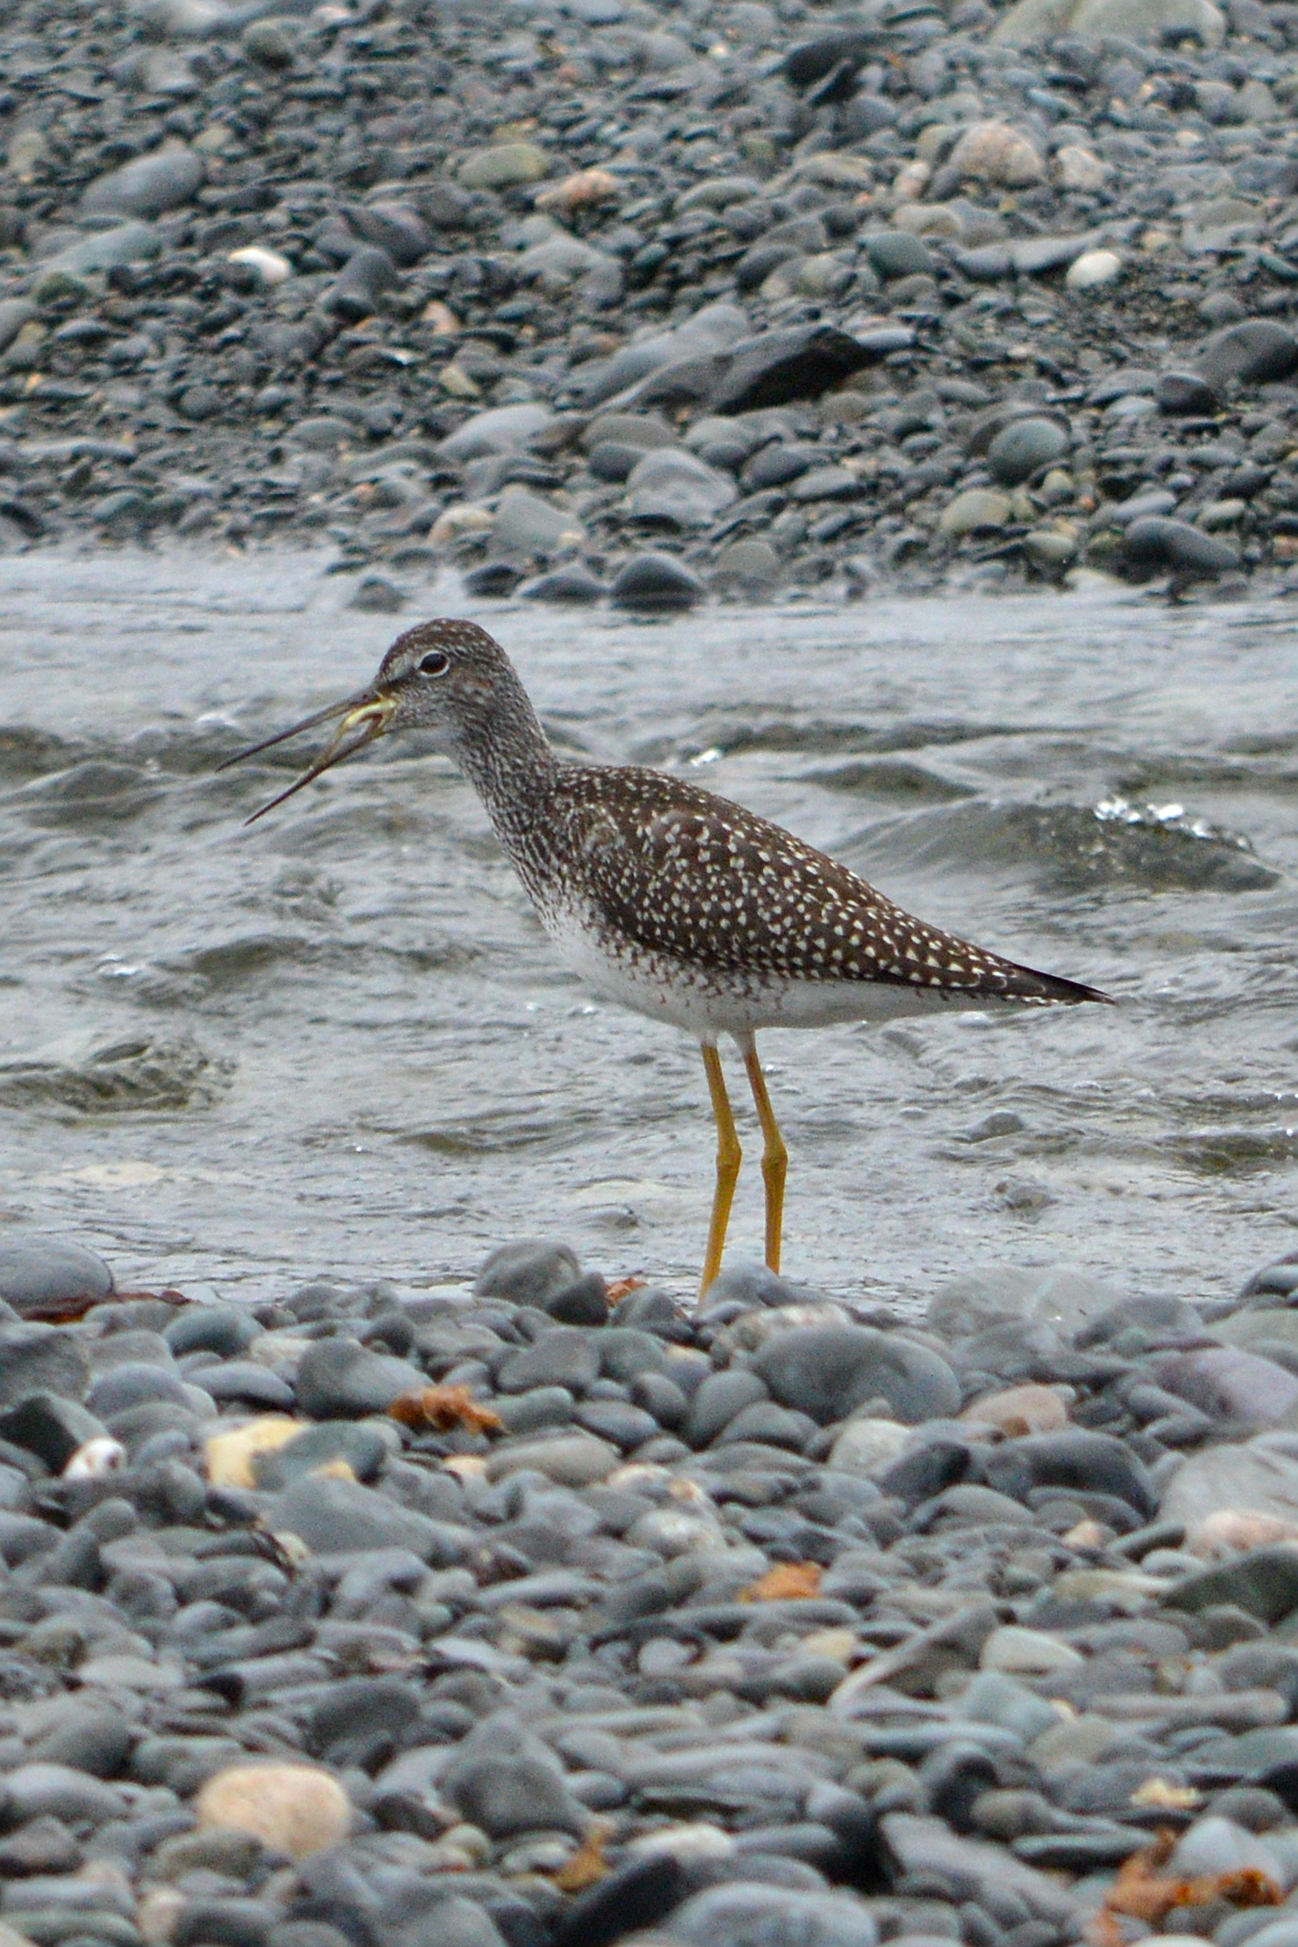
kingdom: Animalia
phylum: Chordata
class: Aves
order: Charadriiformes
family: Scolopacidae
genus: Tringa
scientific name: Tringa melanoleuca
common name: Greater yellowlegs
